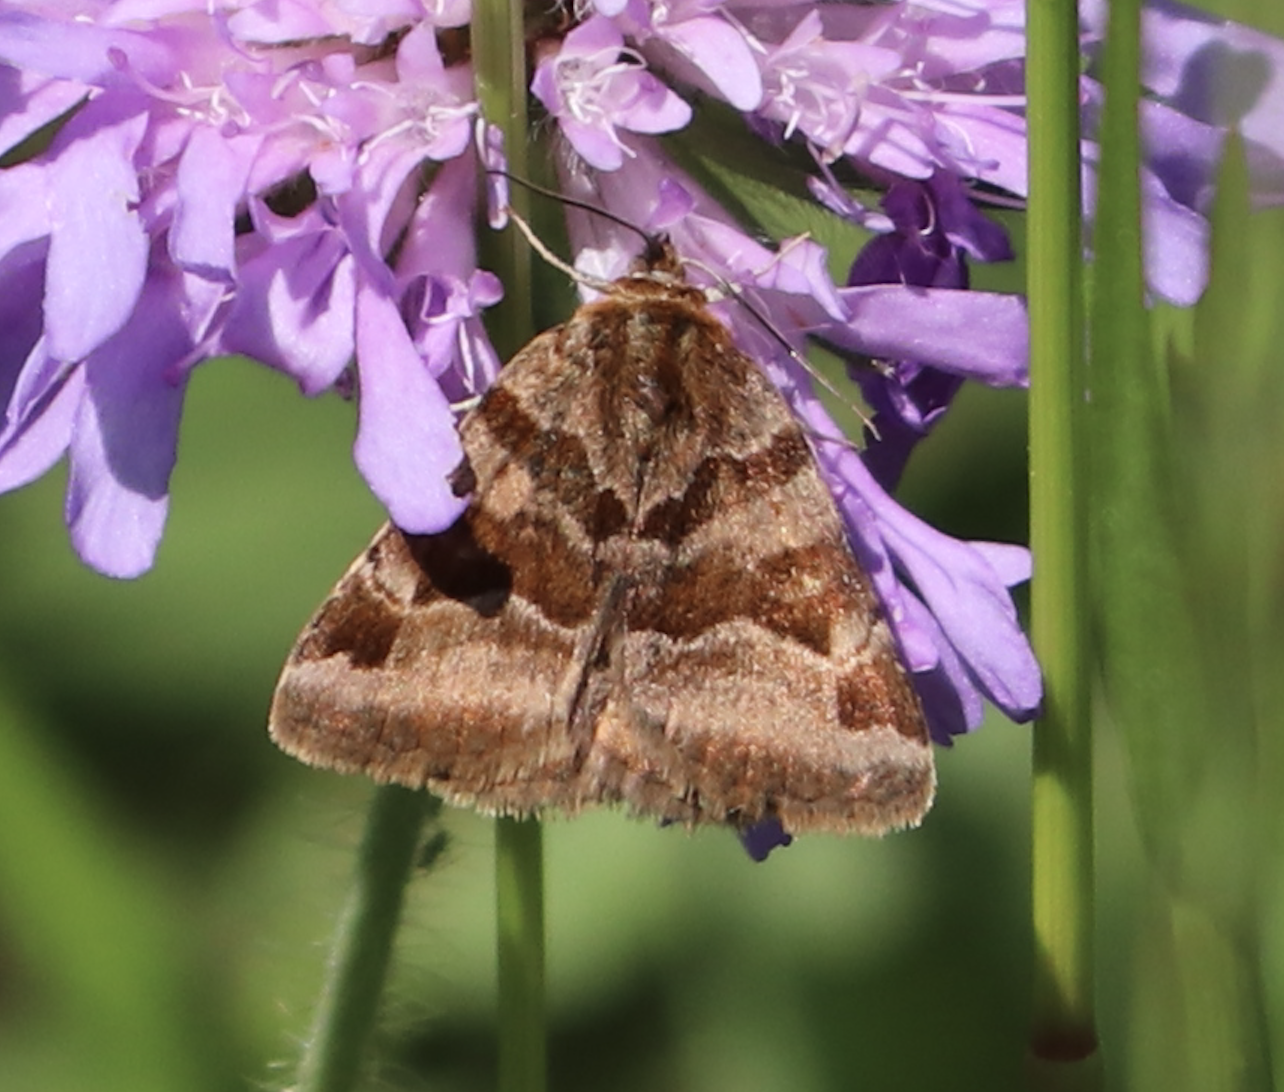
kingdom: Animalia
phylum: Arthropoda
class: Insecta
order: Lepidoptera
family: Erebidae
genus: Euclidia
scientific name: Euclidia glyphica
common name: Burnet companion
